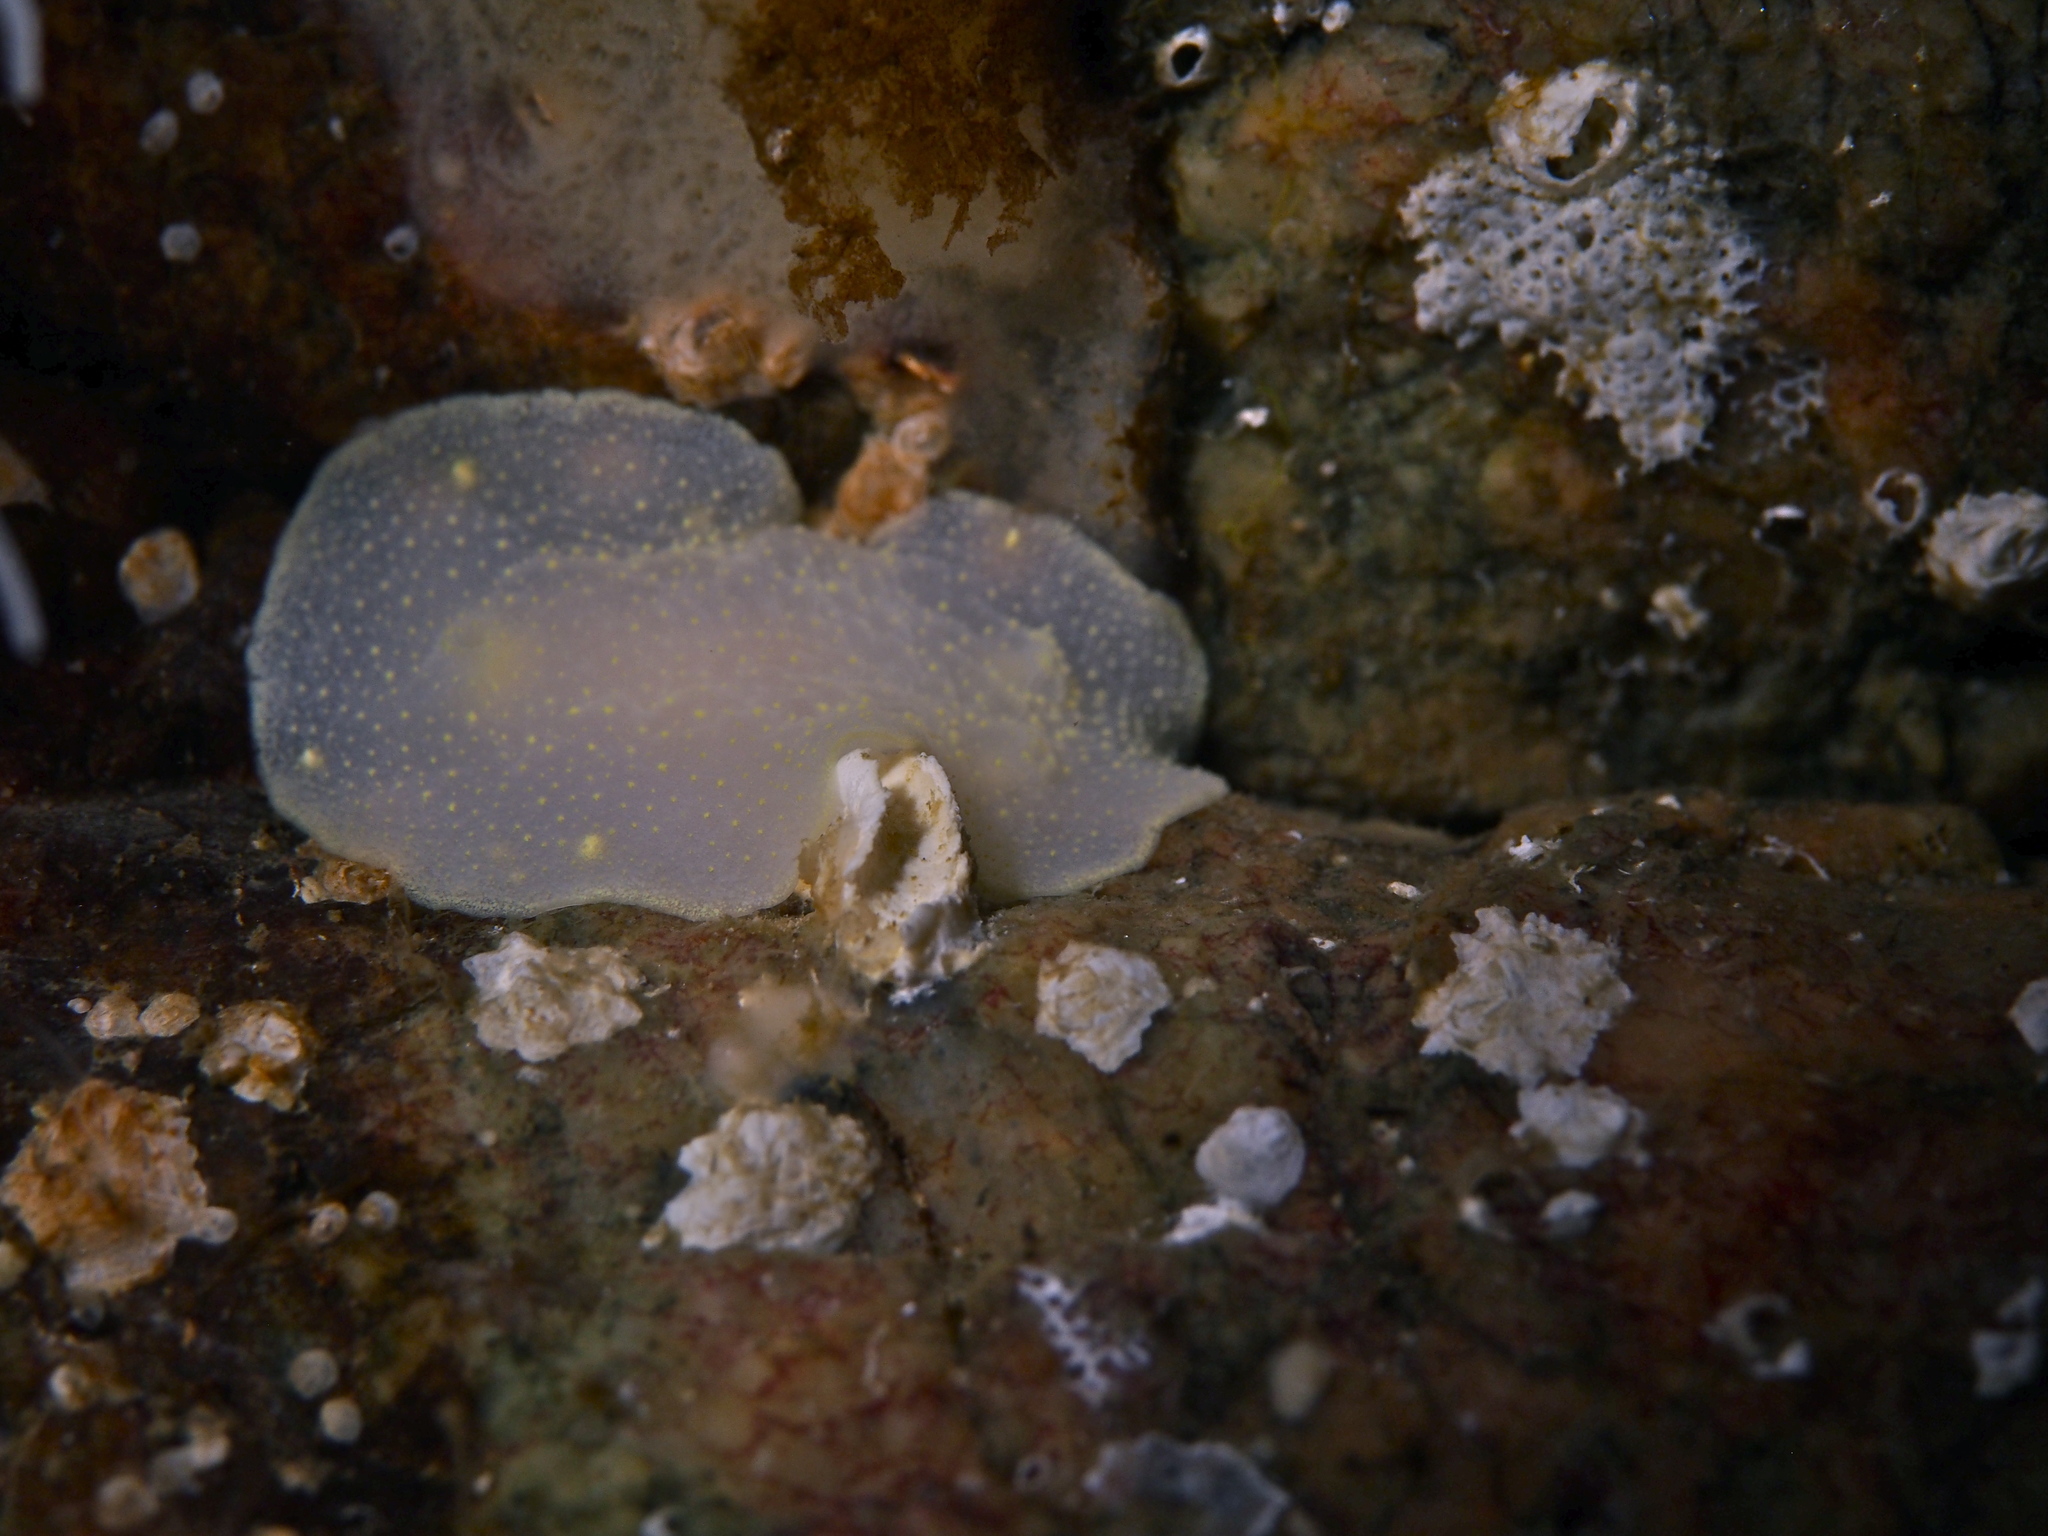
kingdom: Animalia
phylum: Mollusca
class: Gastropoda
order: Nudibranchia
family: Cadlinidae
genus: Cadlina
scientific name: Cadlina laevis
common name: White atlantic cadlina
